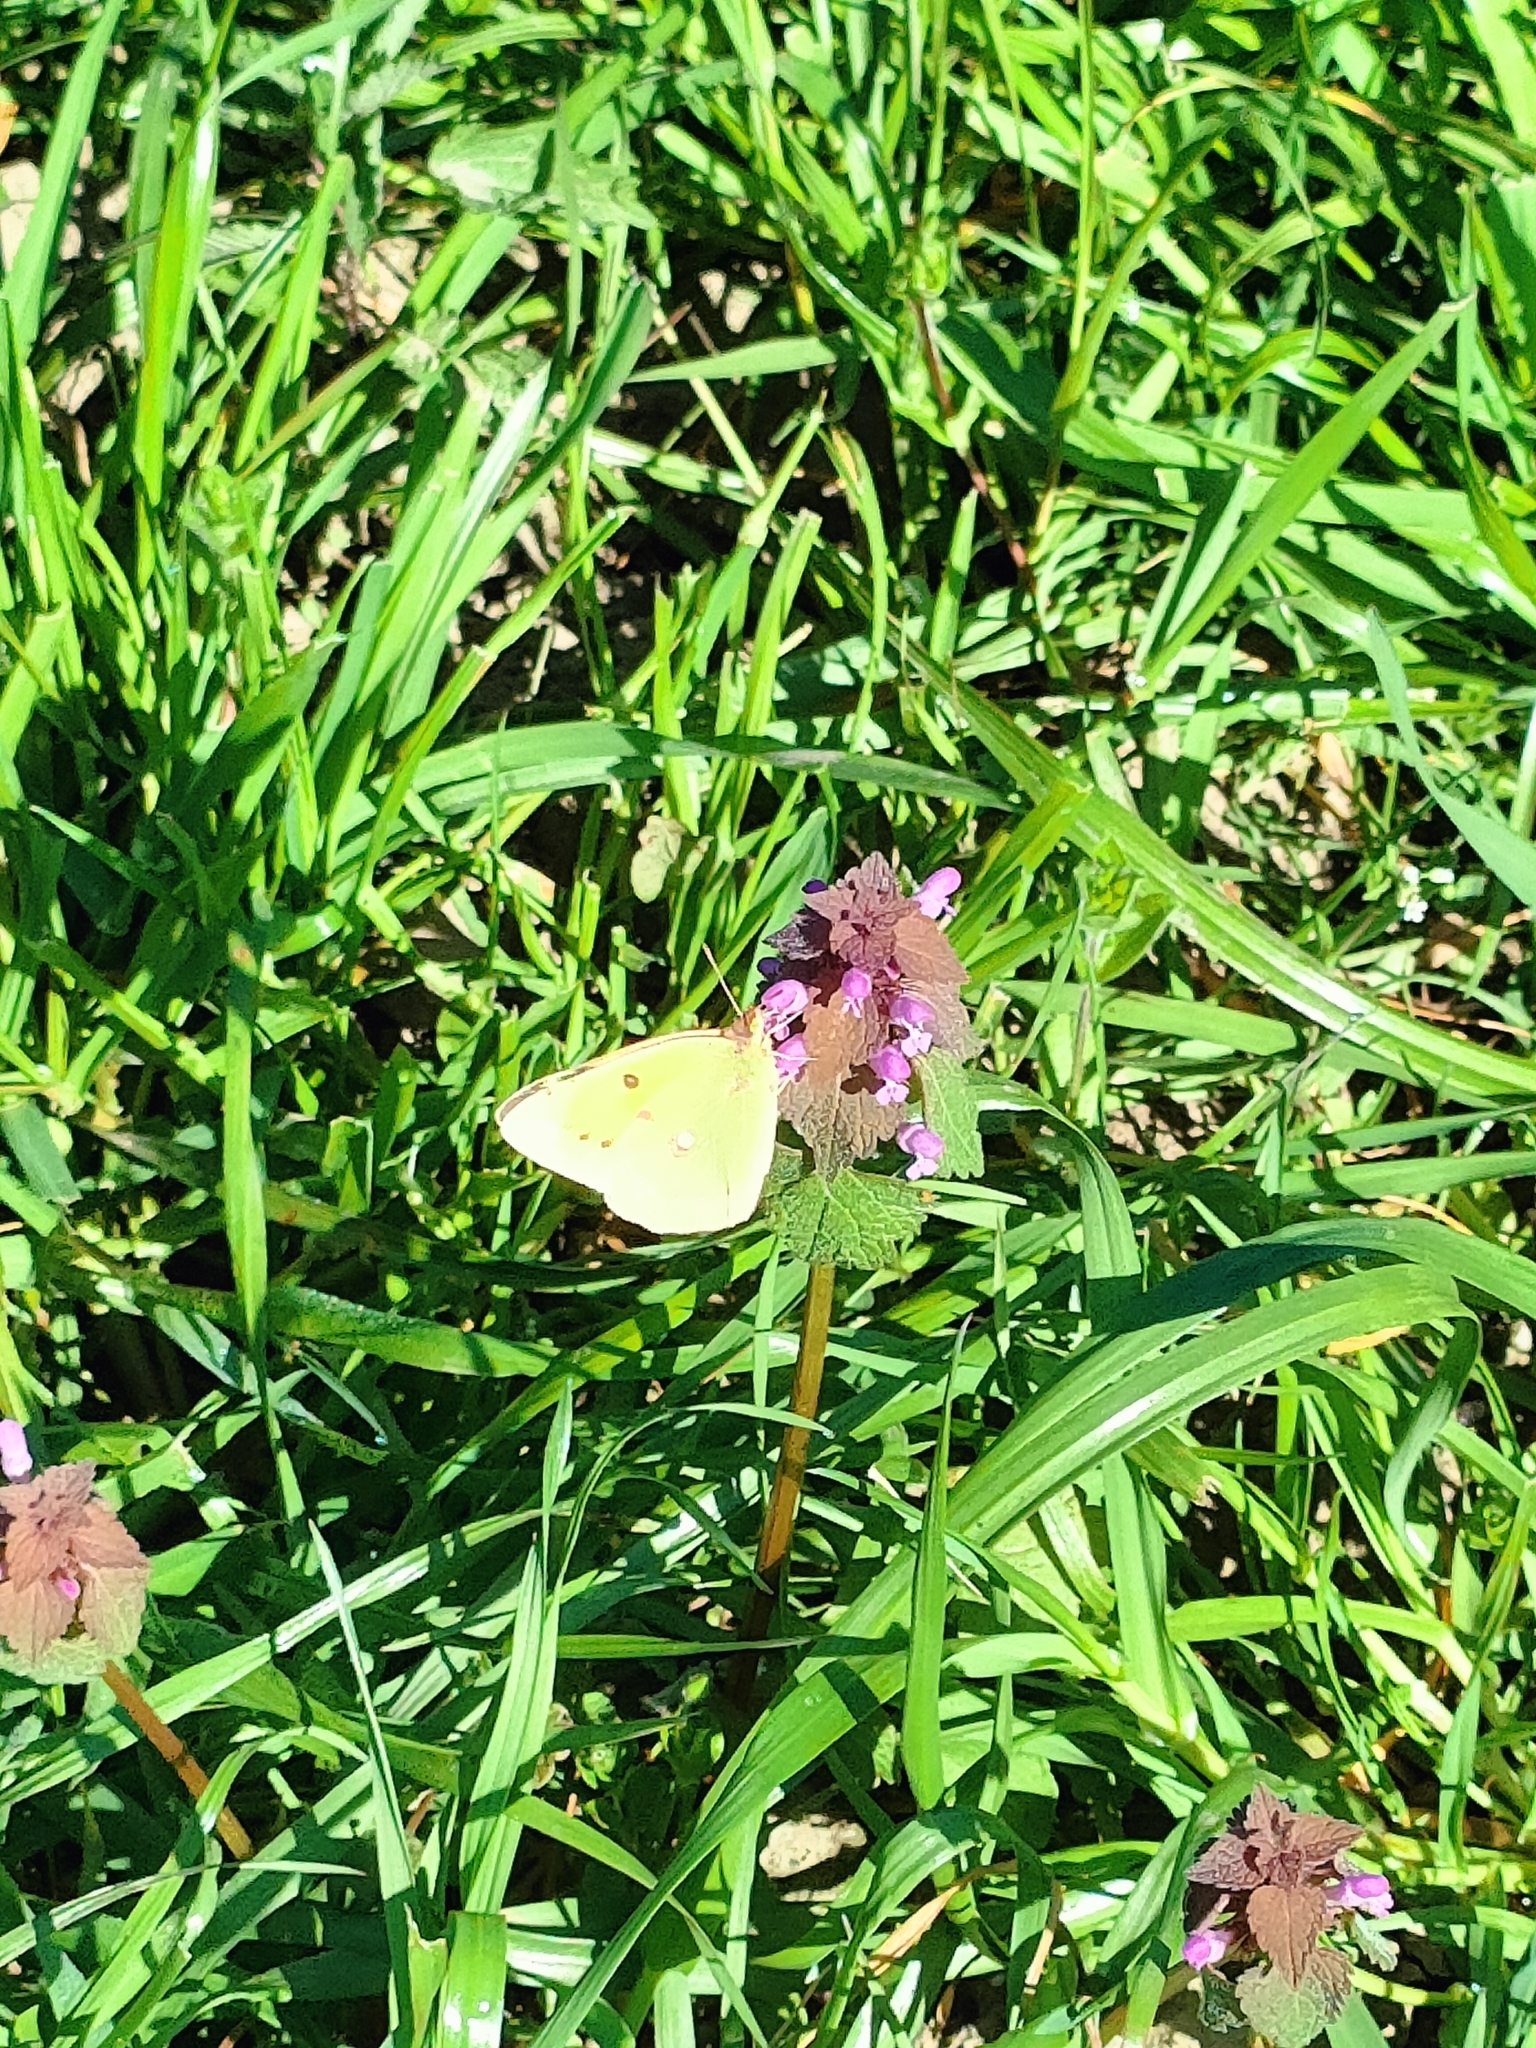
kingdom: Animalia
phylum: Arthropoda
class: Insecta
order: Lepidoptera
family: Pieridae
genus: Colias
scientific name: Colias croceus
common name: Clouded yellow
